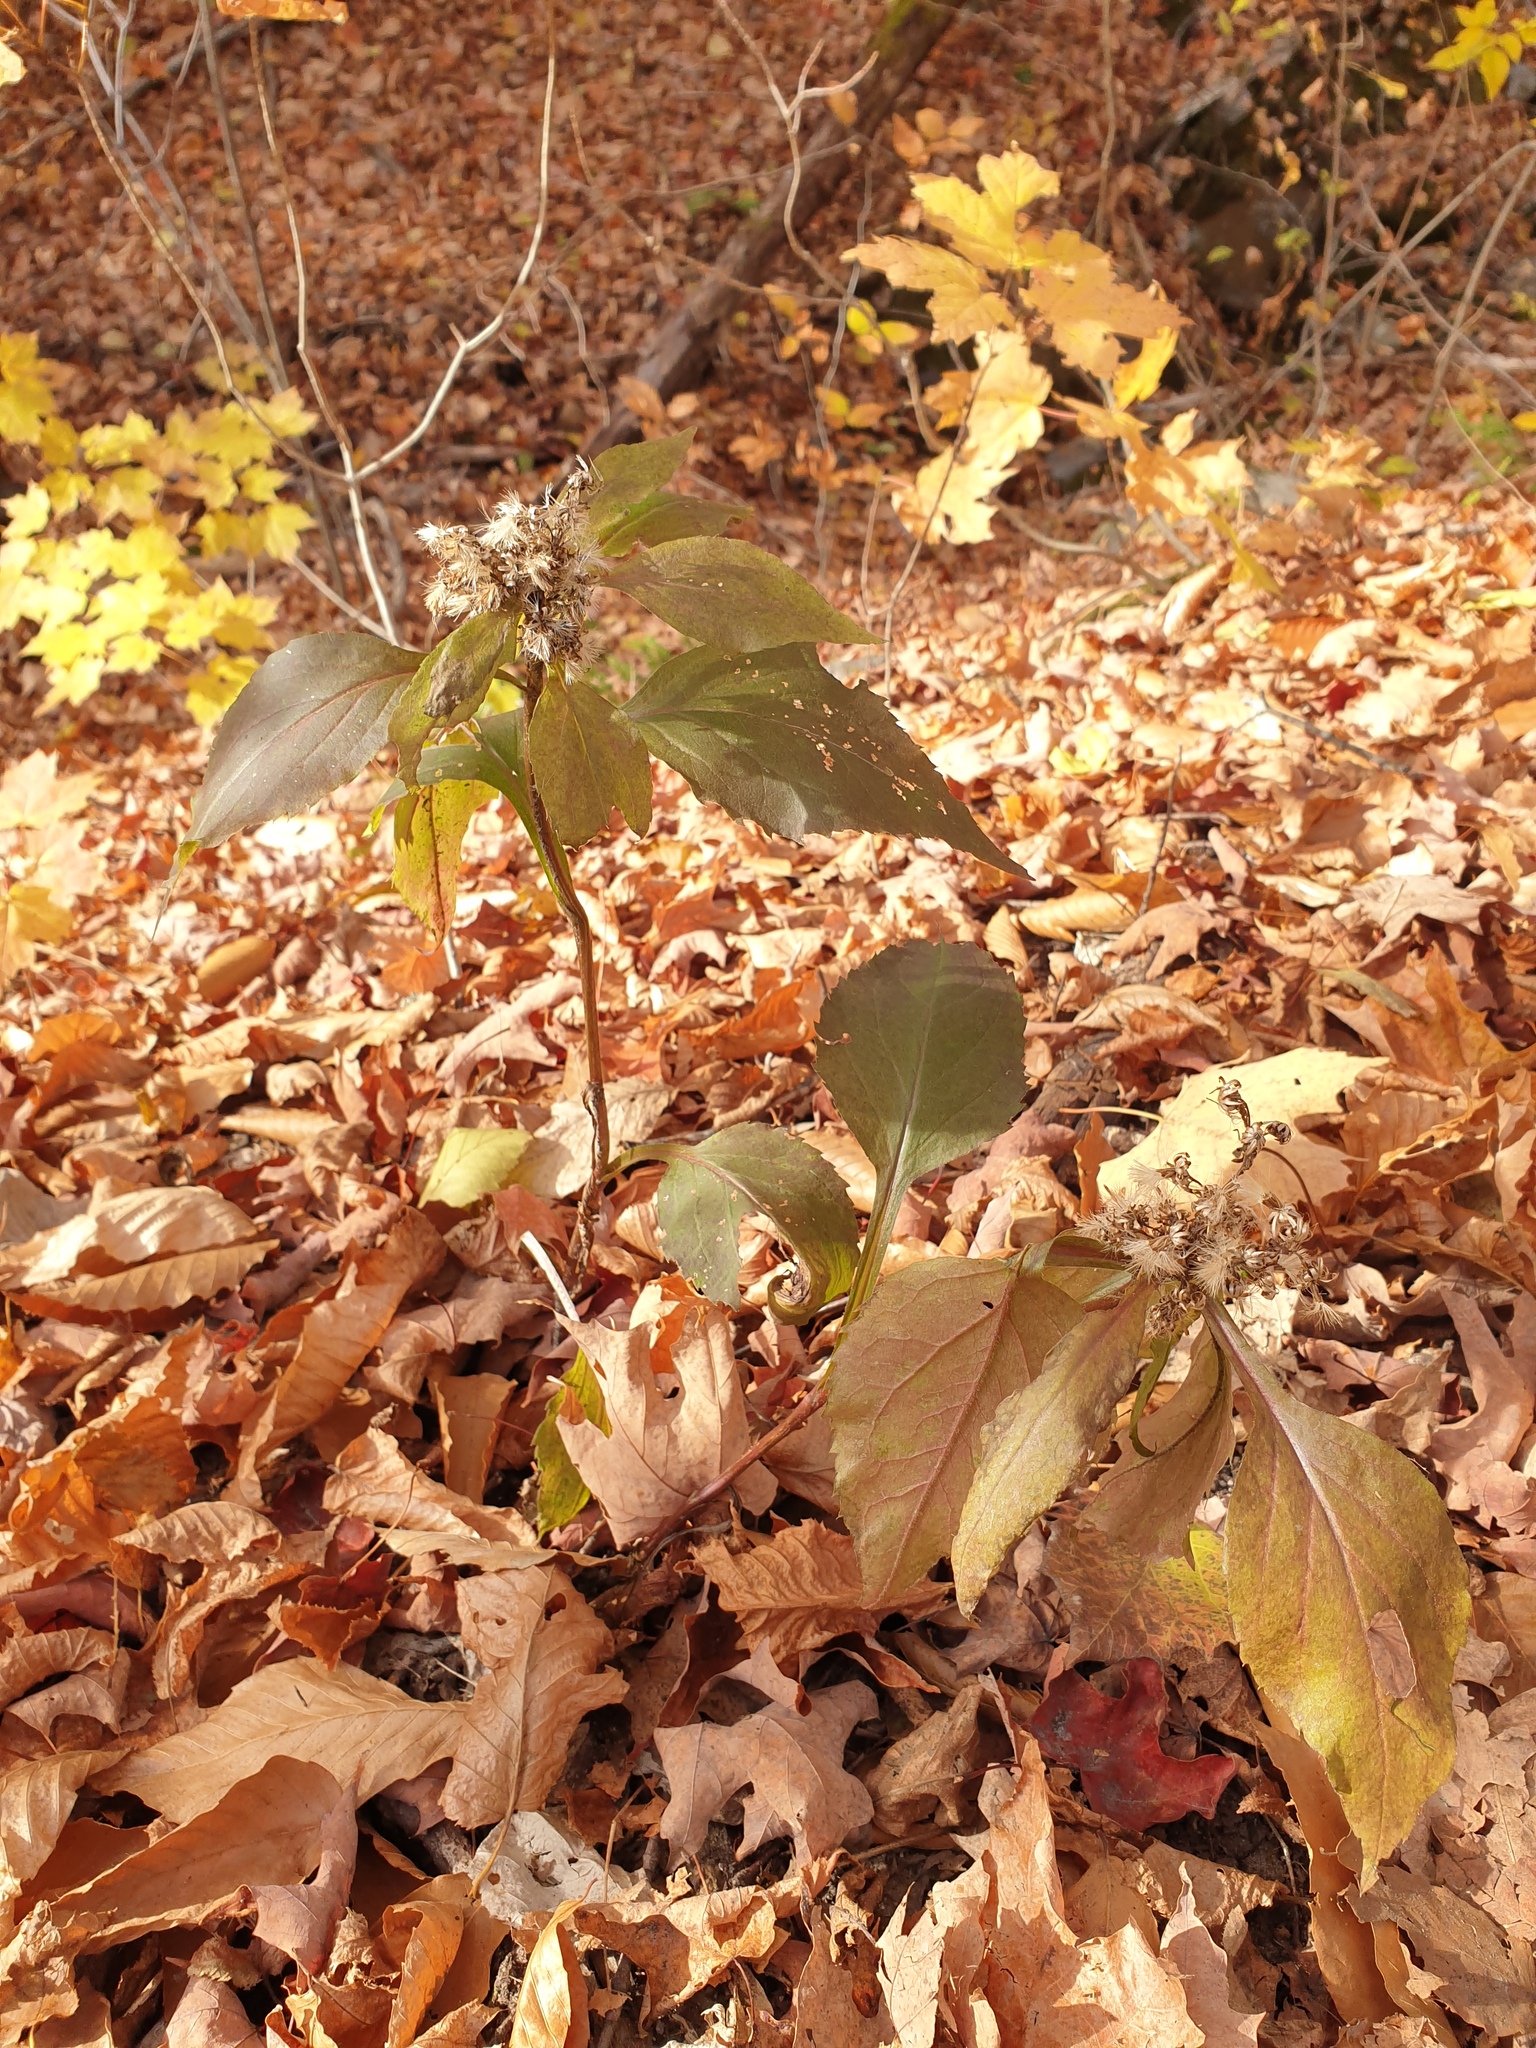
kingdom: Plantae
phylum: Tracheophyta
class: Magnoliopsida
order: Asterales
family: Asteraceae
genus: Solidago
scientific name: Solidago macrophylla
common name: Large-leaved goldenrod
